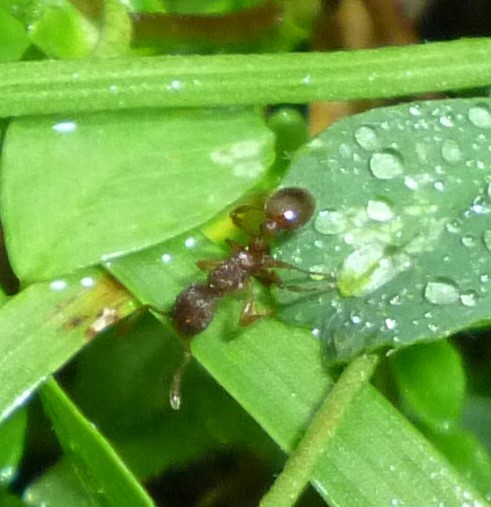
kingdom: Animalia
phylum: Arthropoda
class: Insecta
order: Hymenoptera
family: Formicidae
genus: Myrmica
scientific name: Myrmica
